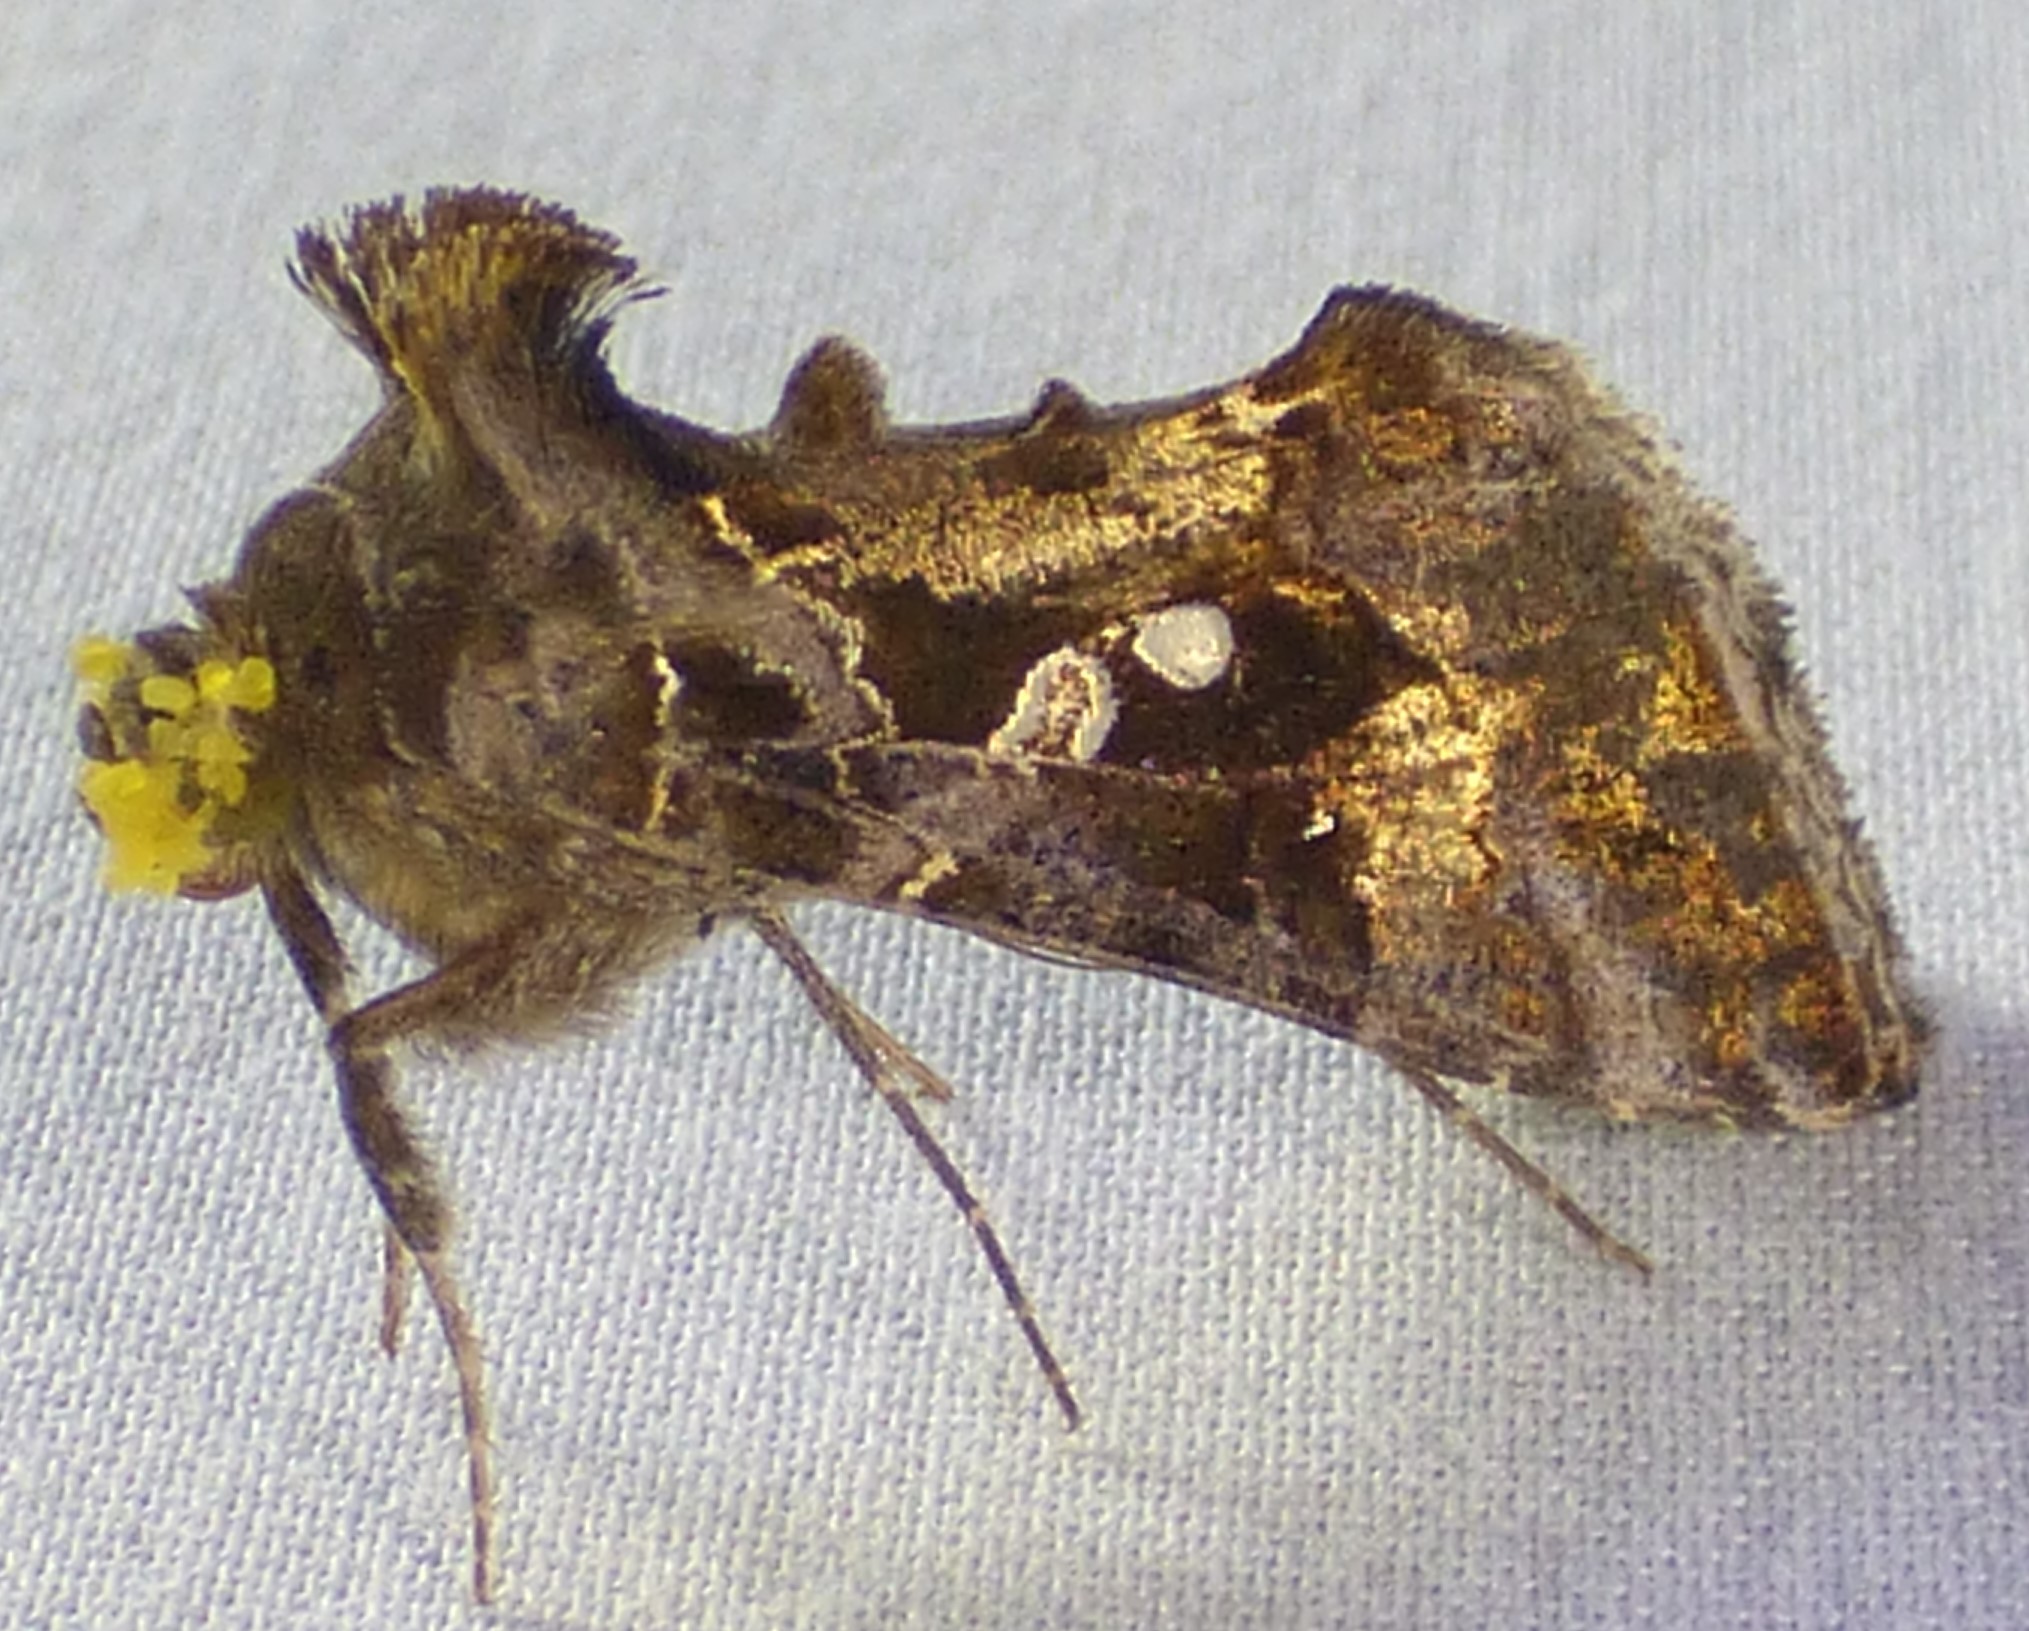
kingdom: Animalia
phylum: Arthropoda
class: Insecta
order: Lepidoptera
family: Noctuidae
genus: Chrysodeixis
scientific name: Chrysodeixis includens
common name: Cutworm moth
